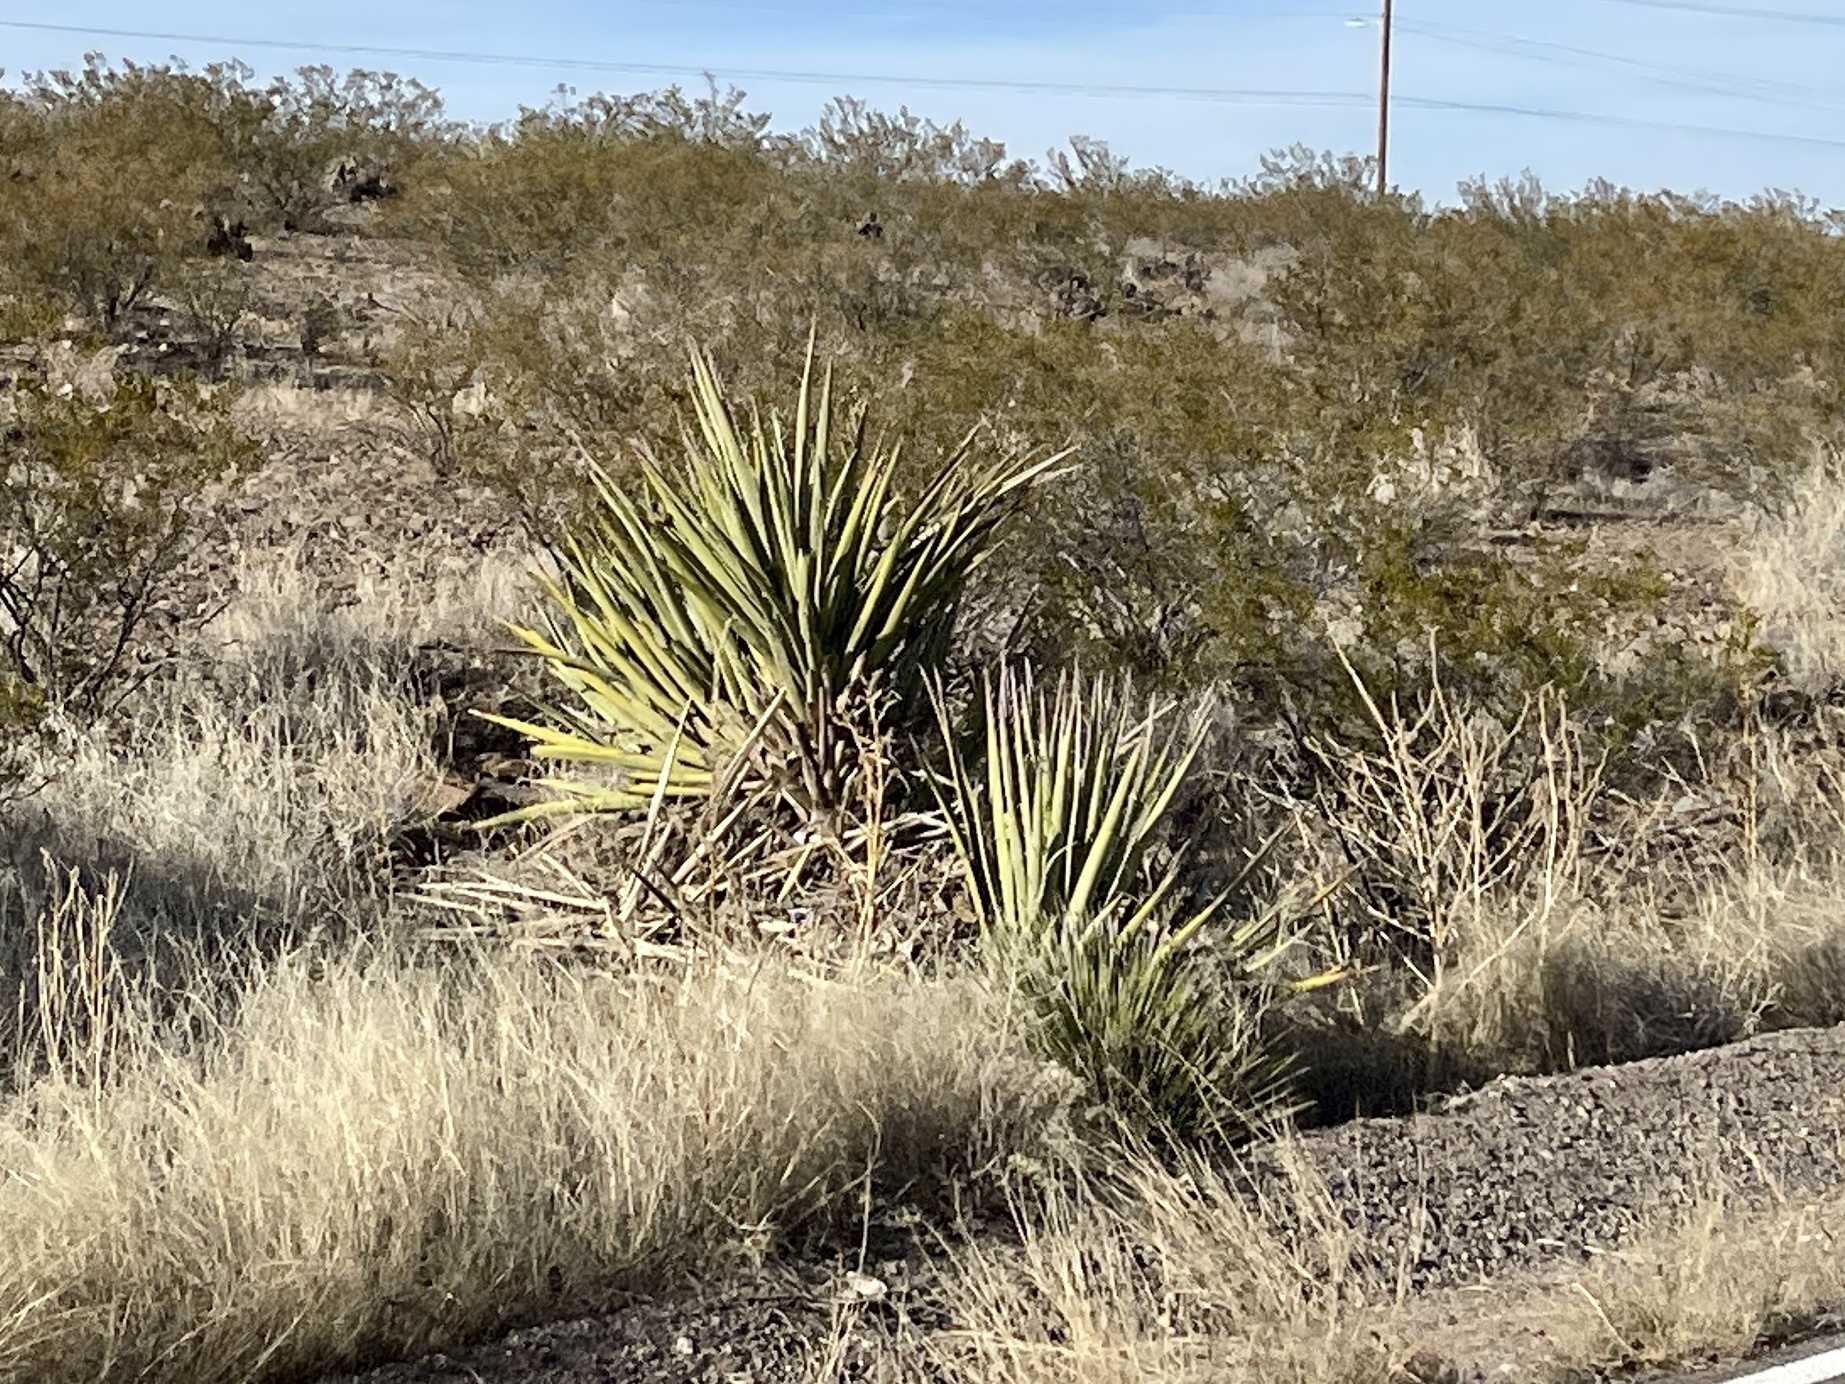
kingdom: Plantae
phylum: Tracheophyta
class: Liliopsida
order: Asparagales
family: Asparagaceae
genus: Yucca
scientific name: Yucca baccata
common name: Banana yucca
